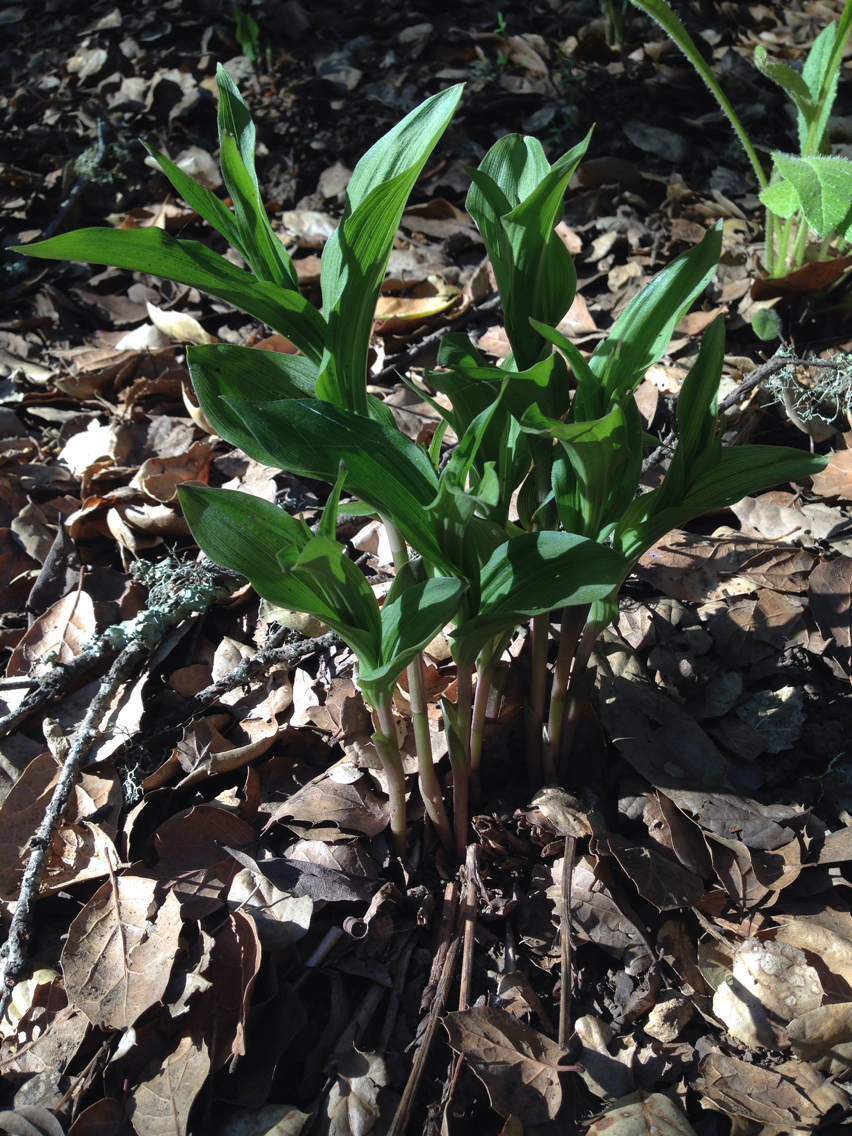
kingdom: Plantae
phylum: Tracheophyta
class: Liliopsida
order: Asparagales
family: Orchidaceae
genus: Epipactis
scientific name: Epipactis helleborine
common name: Broad-leaved helleborine
